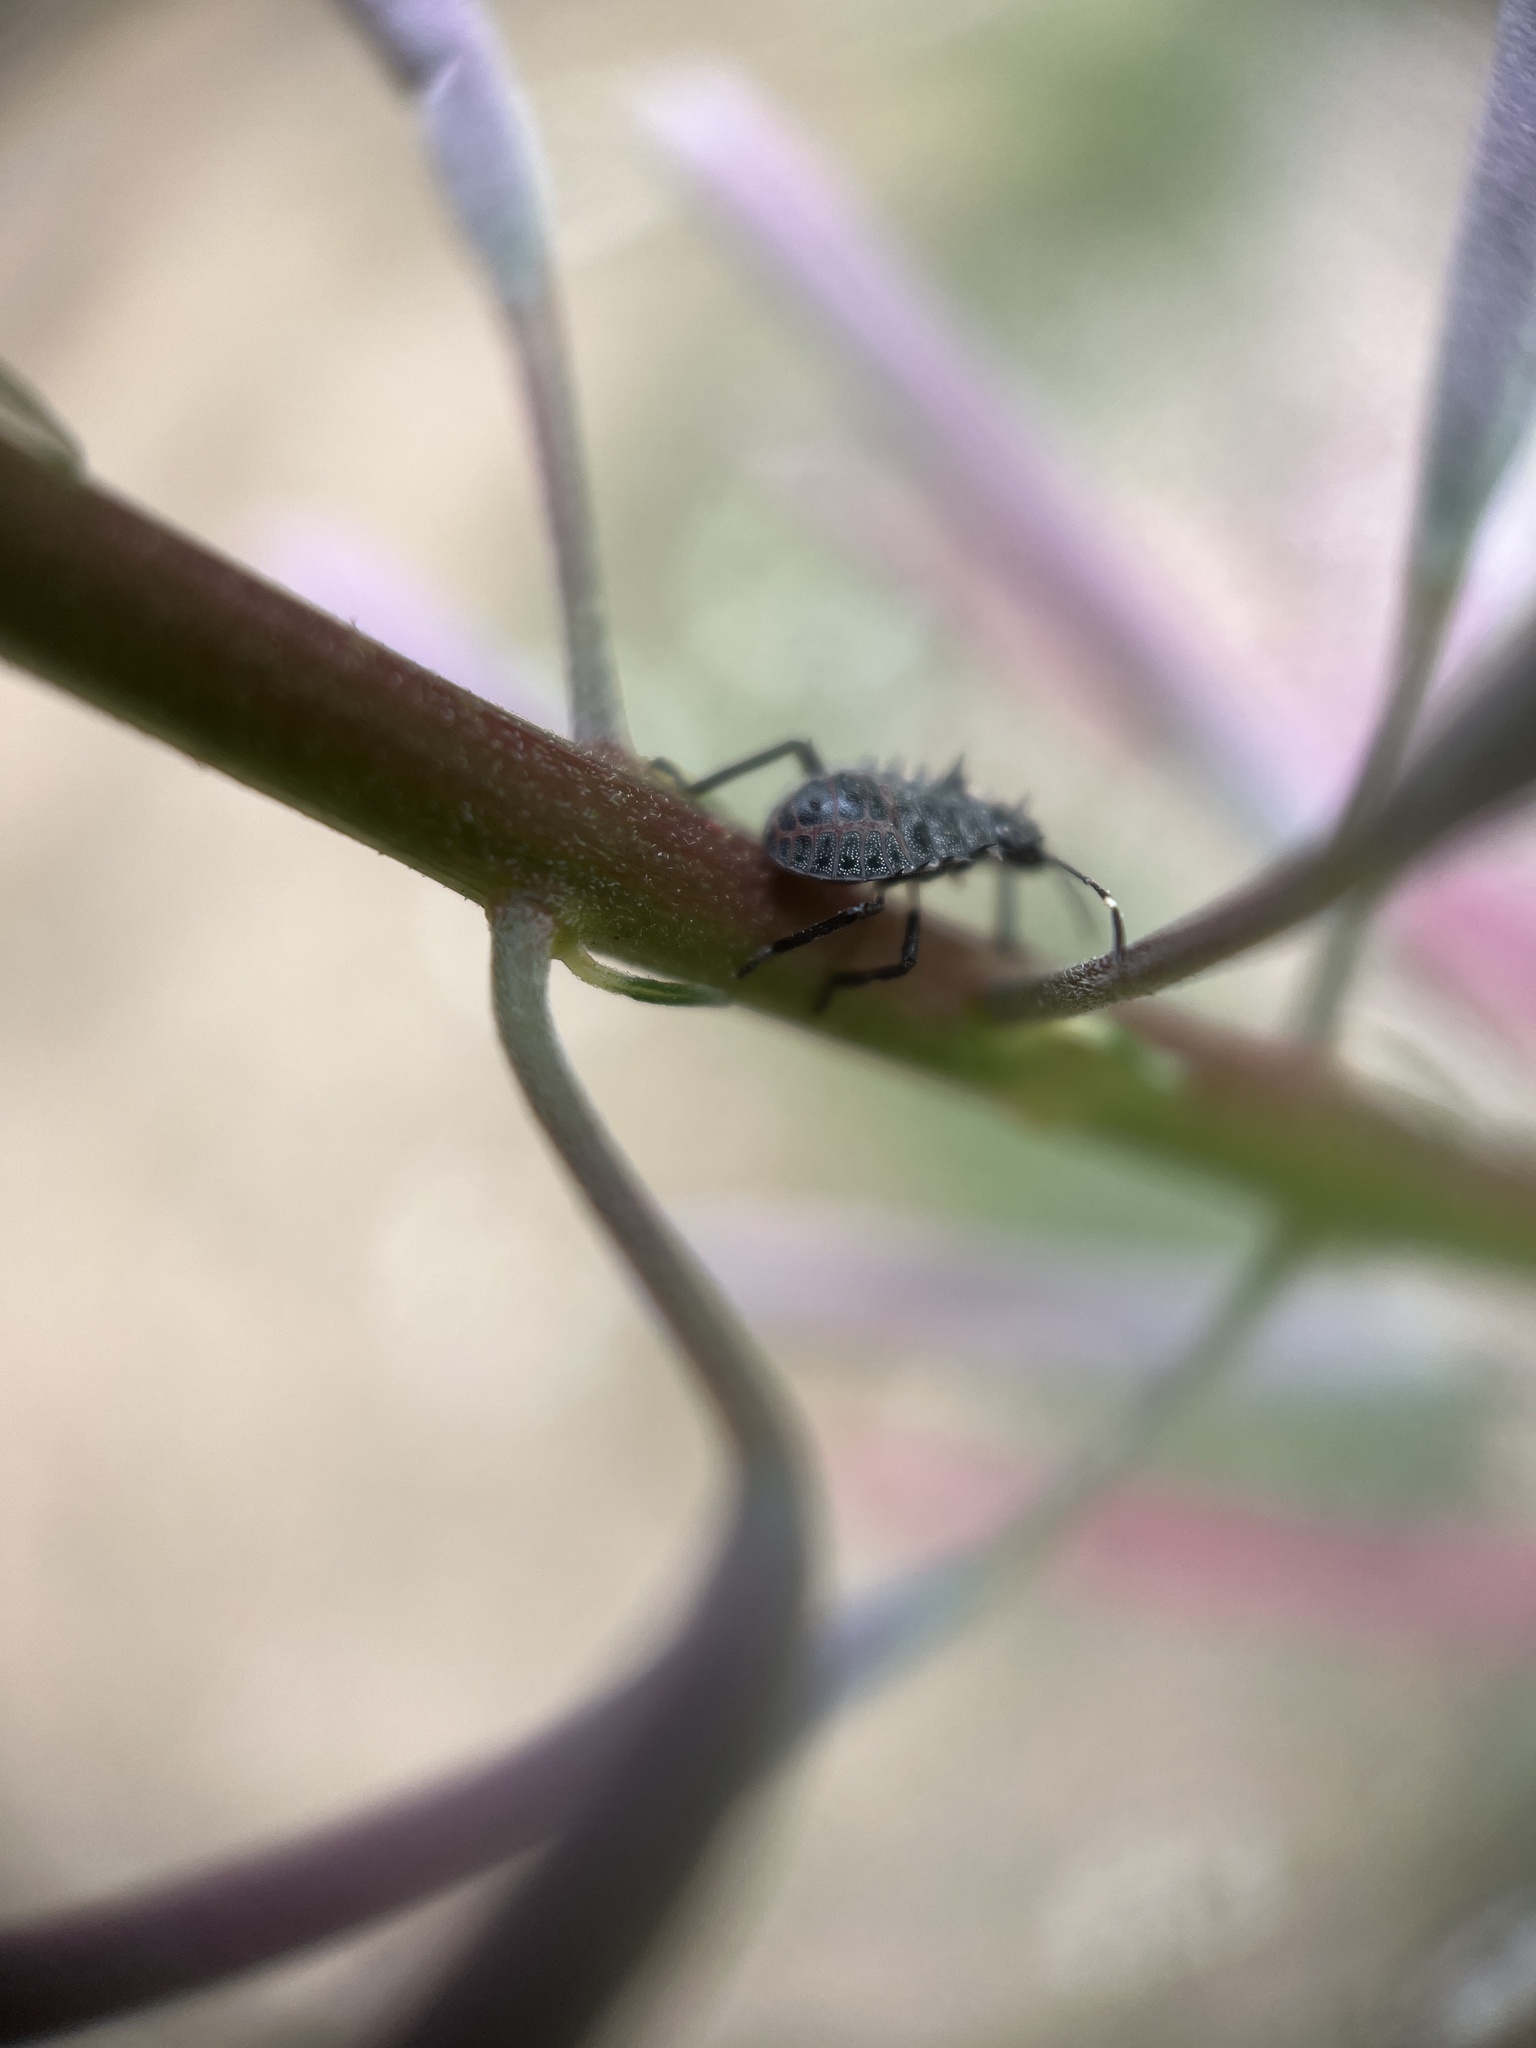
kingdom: Animalia
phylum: Arthropoda
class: Insecta
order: Hemiptera
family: Pentatomidae
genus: Halyomorpha
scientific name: Halyomorpha halys
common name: Brown marmorated stink bug
